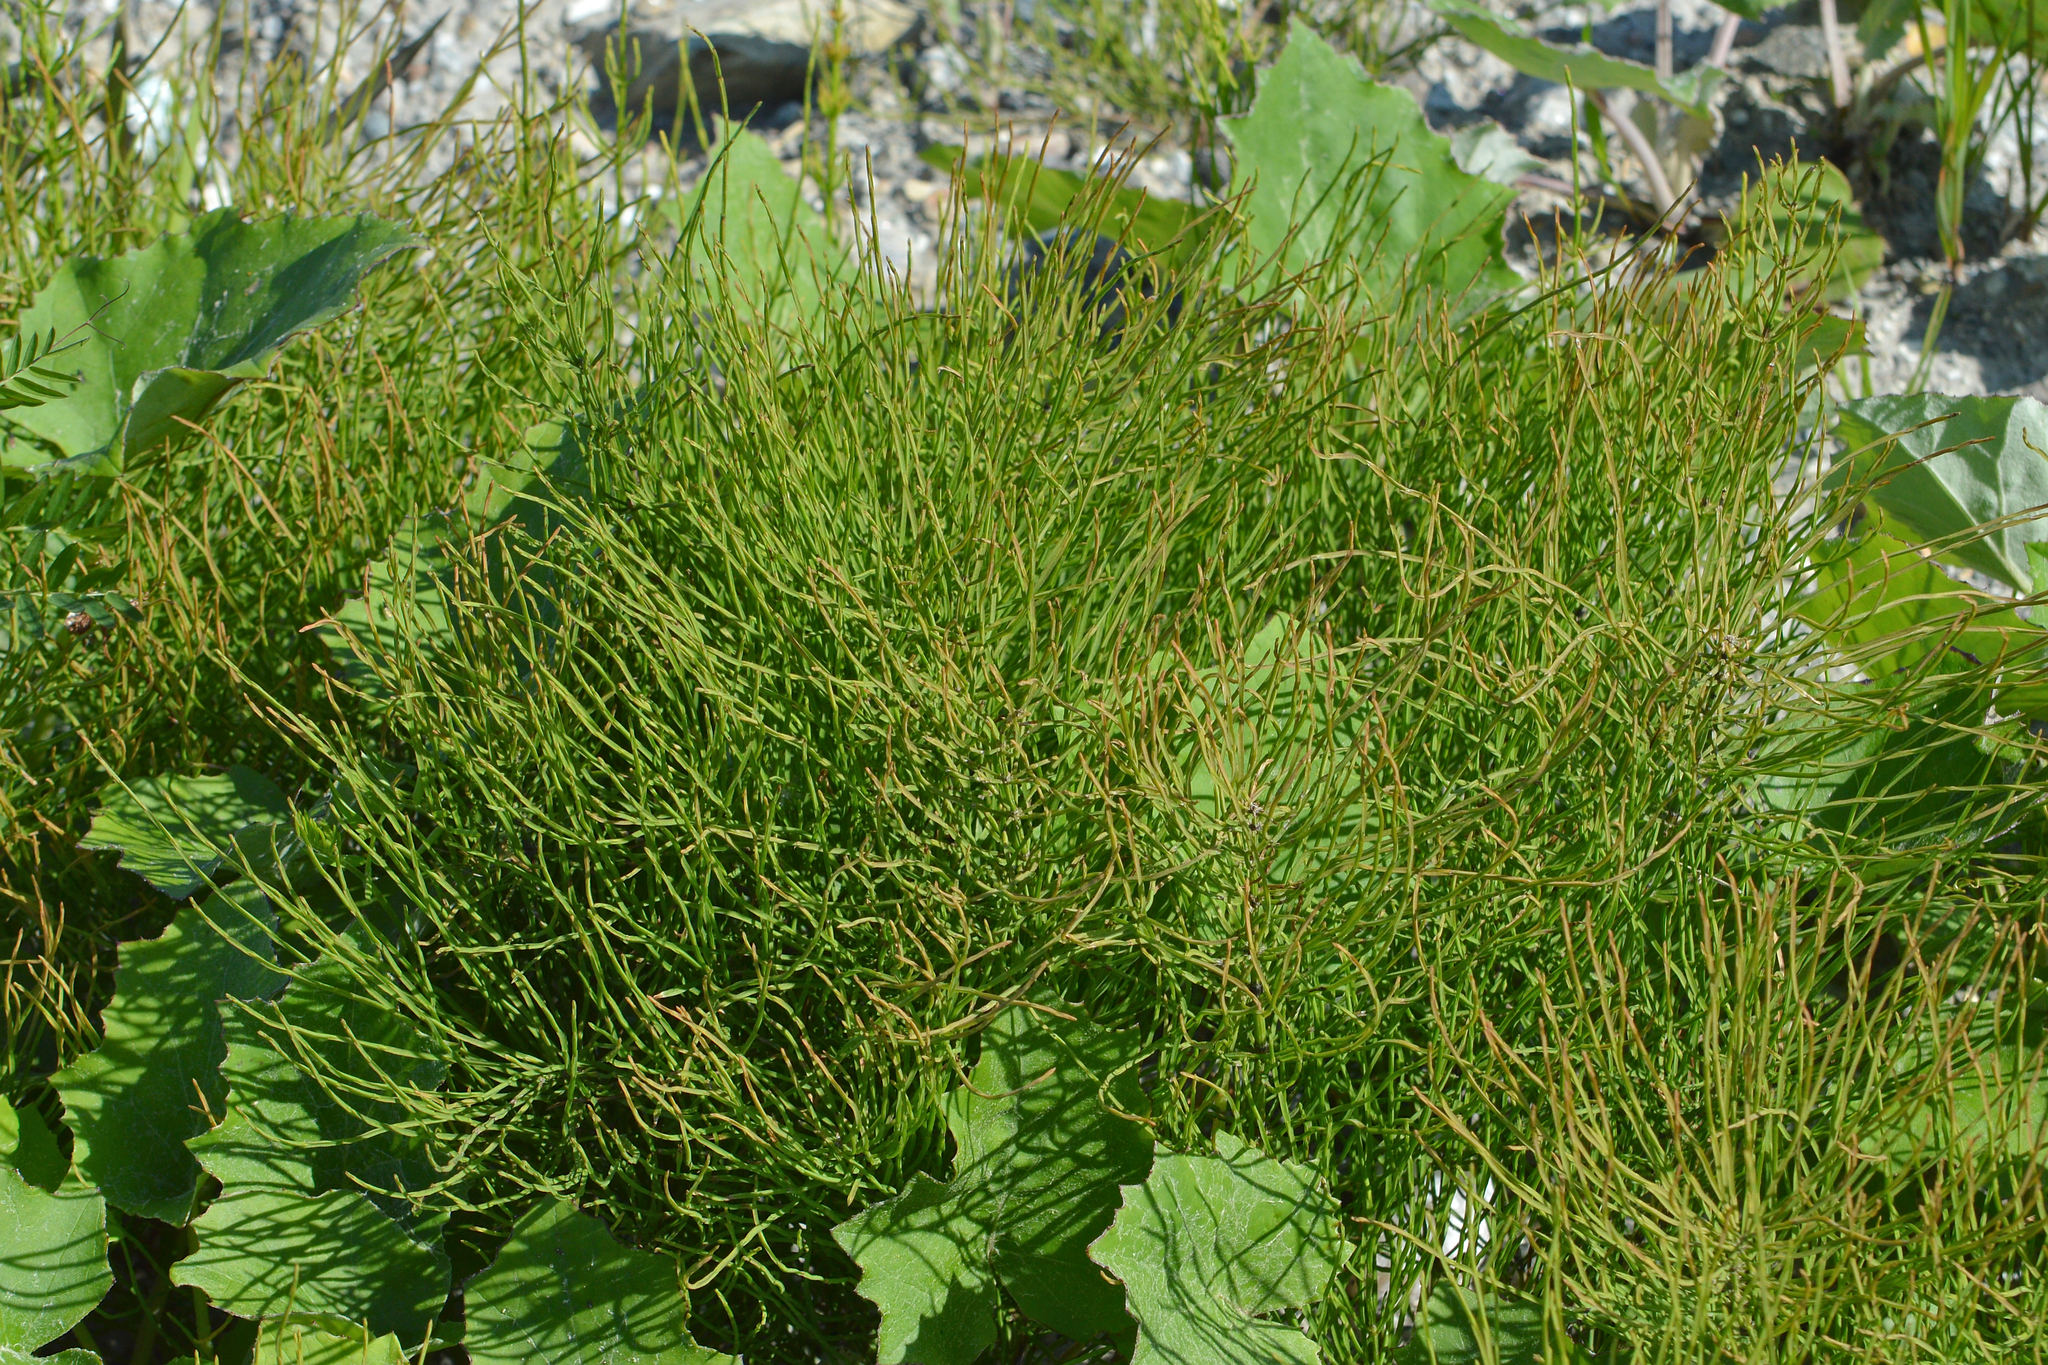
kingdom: Plantae
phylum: Tracheophyta
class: Polypodiopsida
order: Equisetales
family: Equisetaceae
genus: Equisetum
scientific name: Equisetum arvense
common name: Field horsetail
